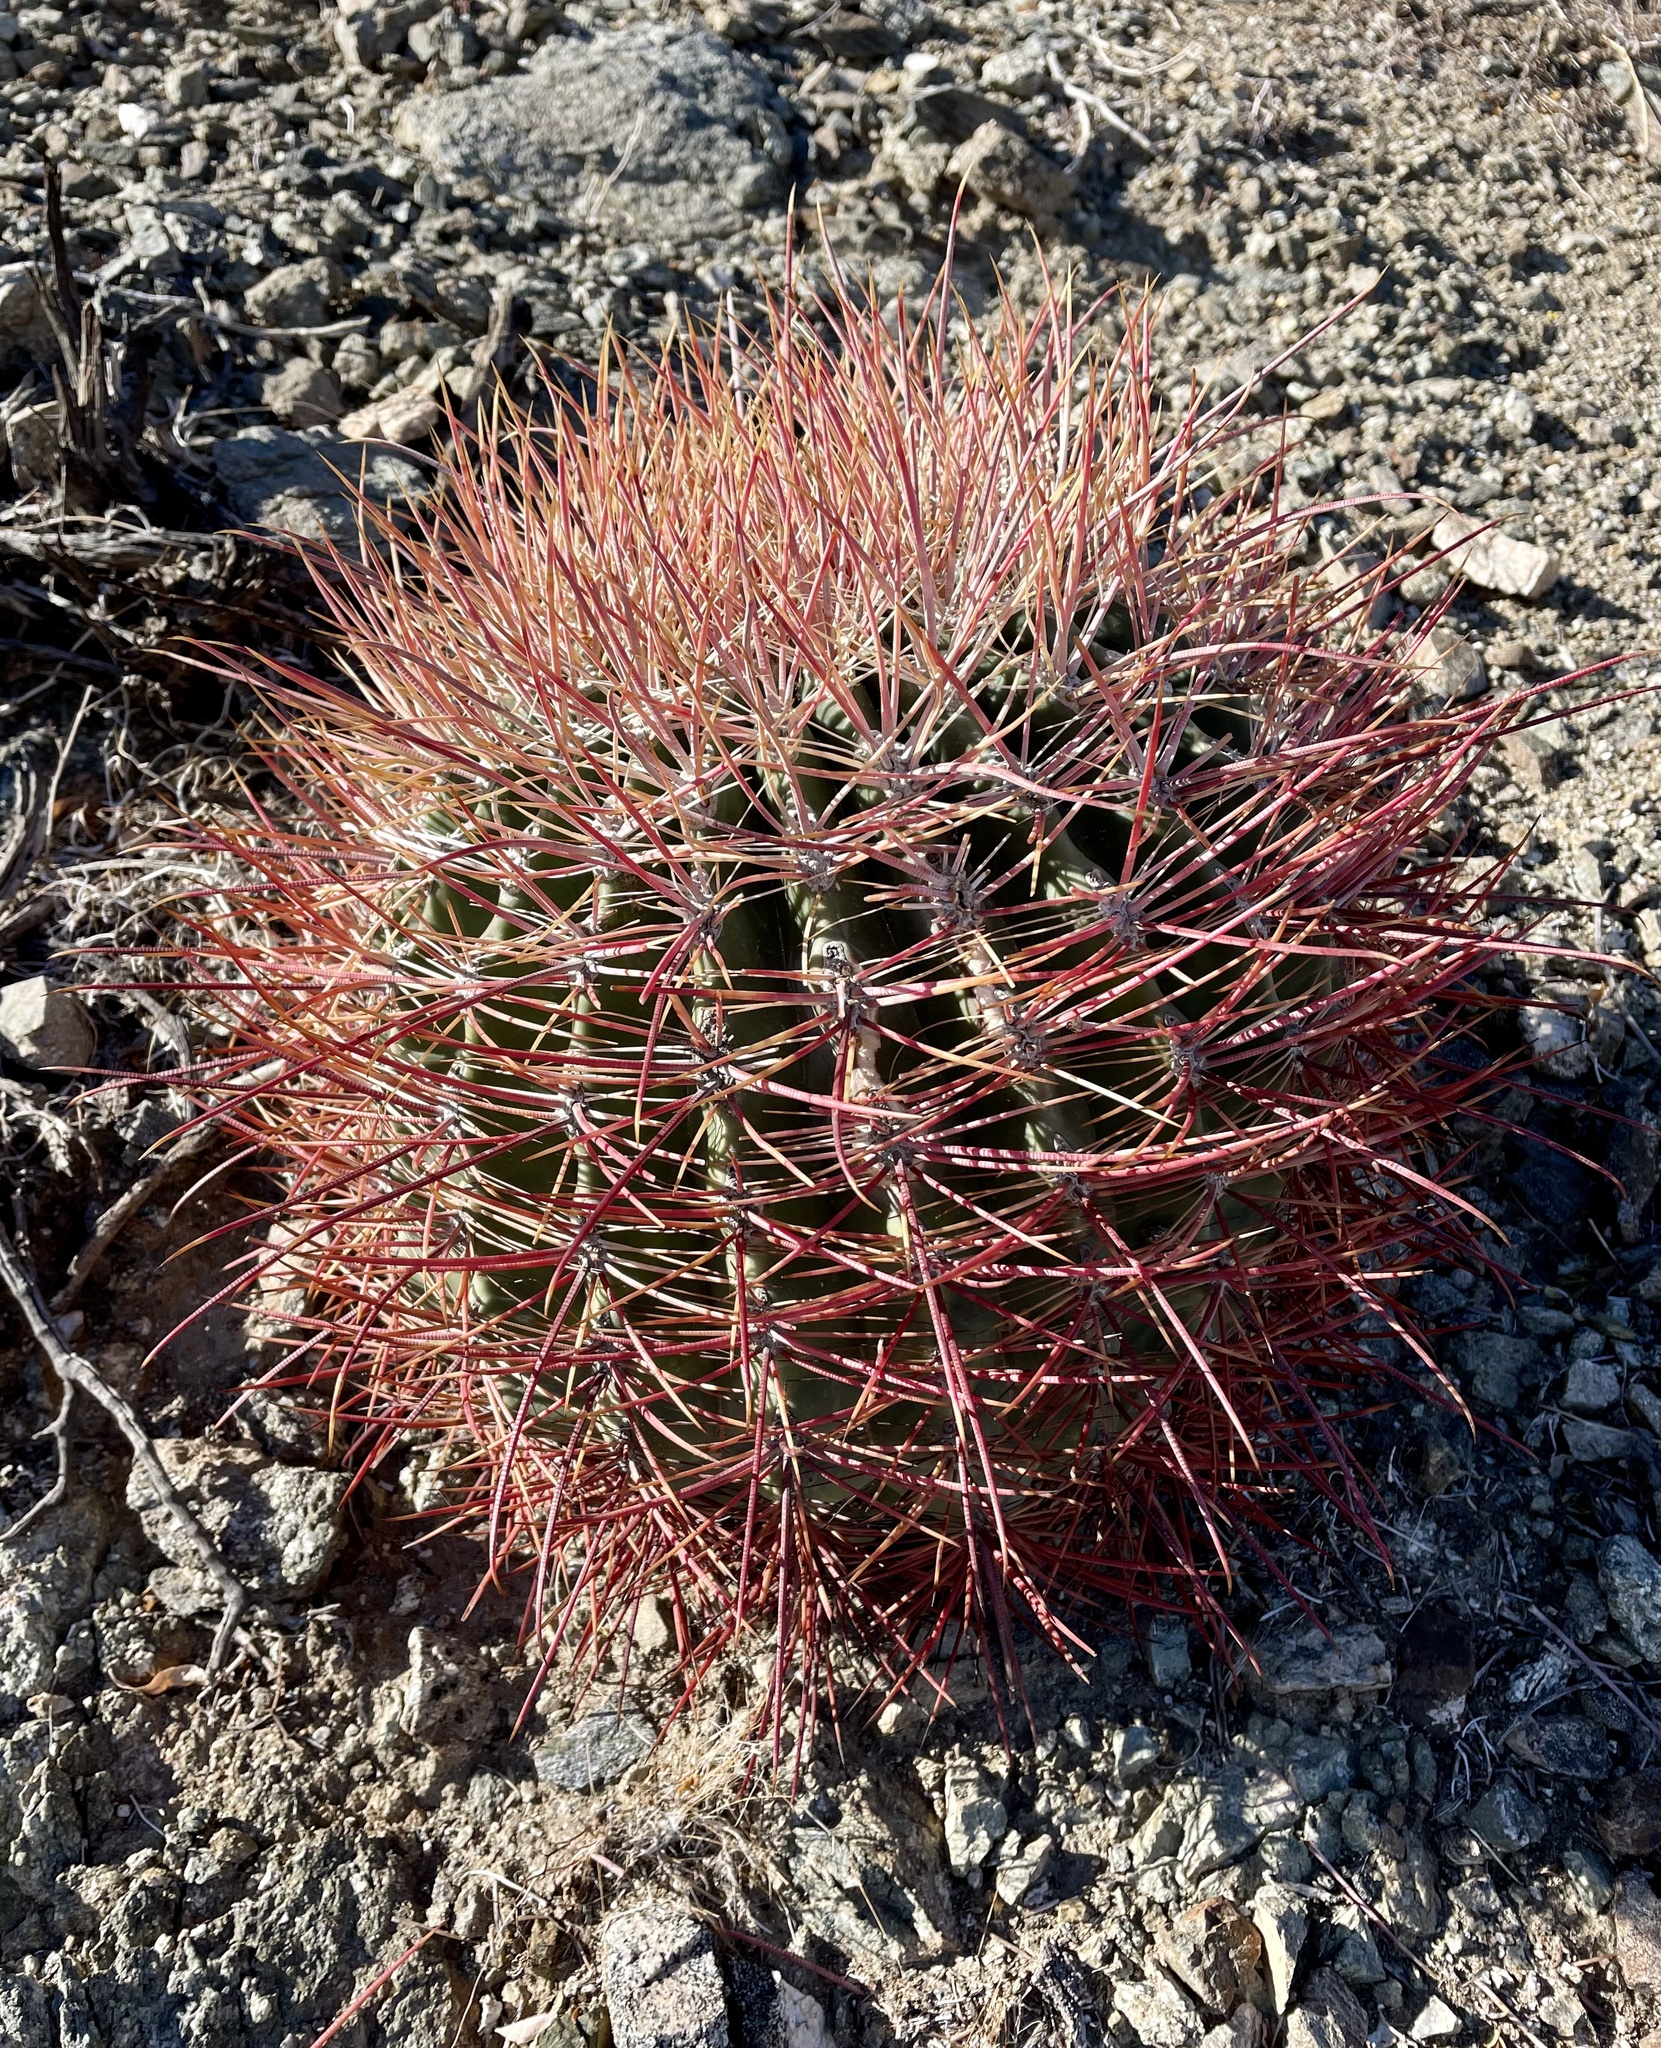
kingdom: Plantae
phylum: Tracheophyta
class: Magnoliopsida
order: Caryophyllales
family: Cactaceae
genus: Ferocactus
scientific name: Ferocactus cylindraceus
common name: California barrel cactus
